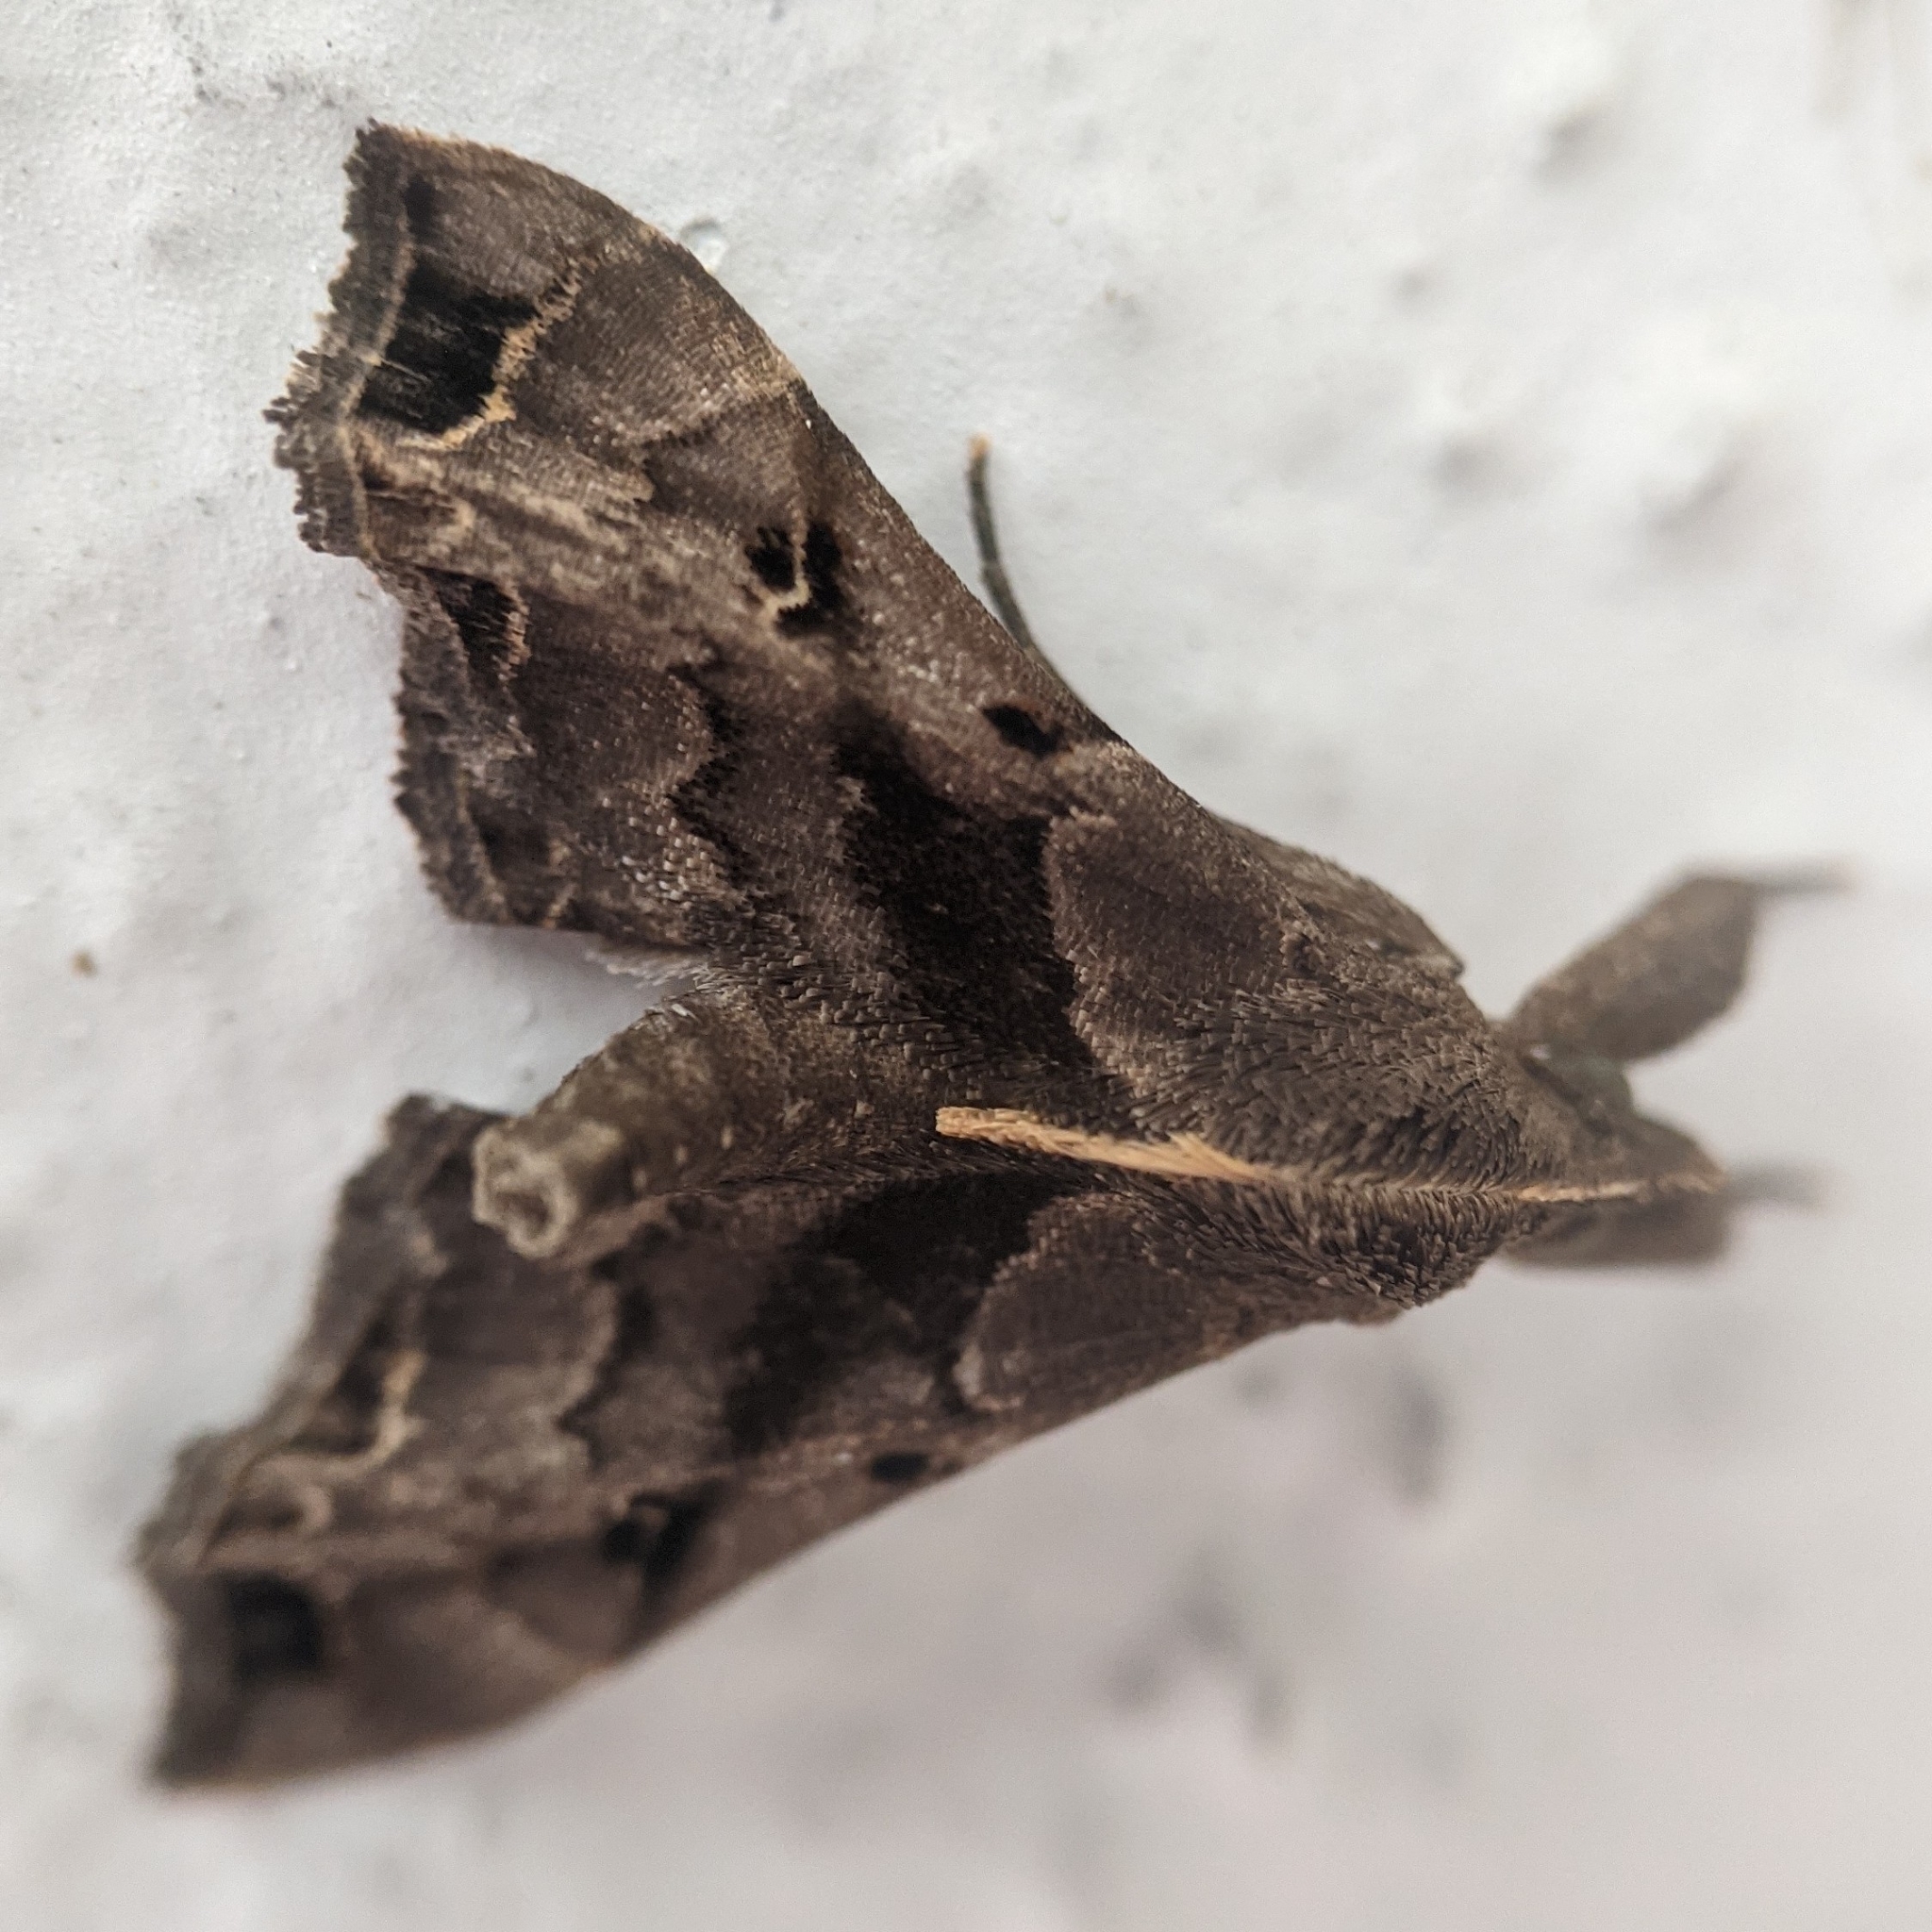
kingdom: Animalia
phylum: Arthropoda
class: Insecta
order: Lepidoptera
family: Erebidae
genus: Palthis
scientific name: Palthis asopialis
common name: Faint-spotted palthis moth
